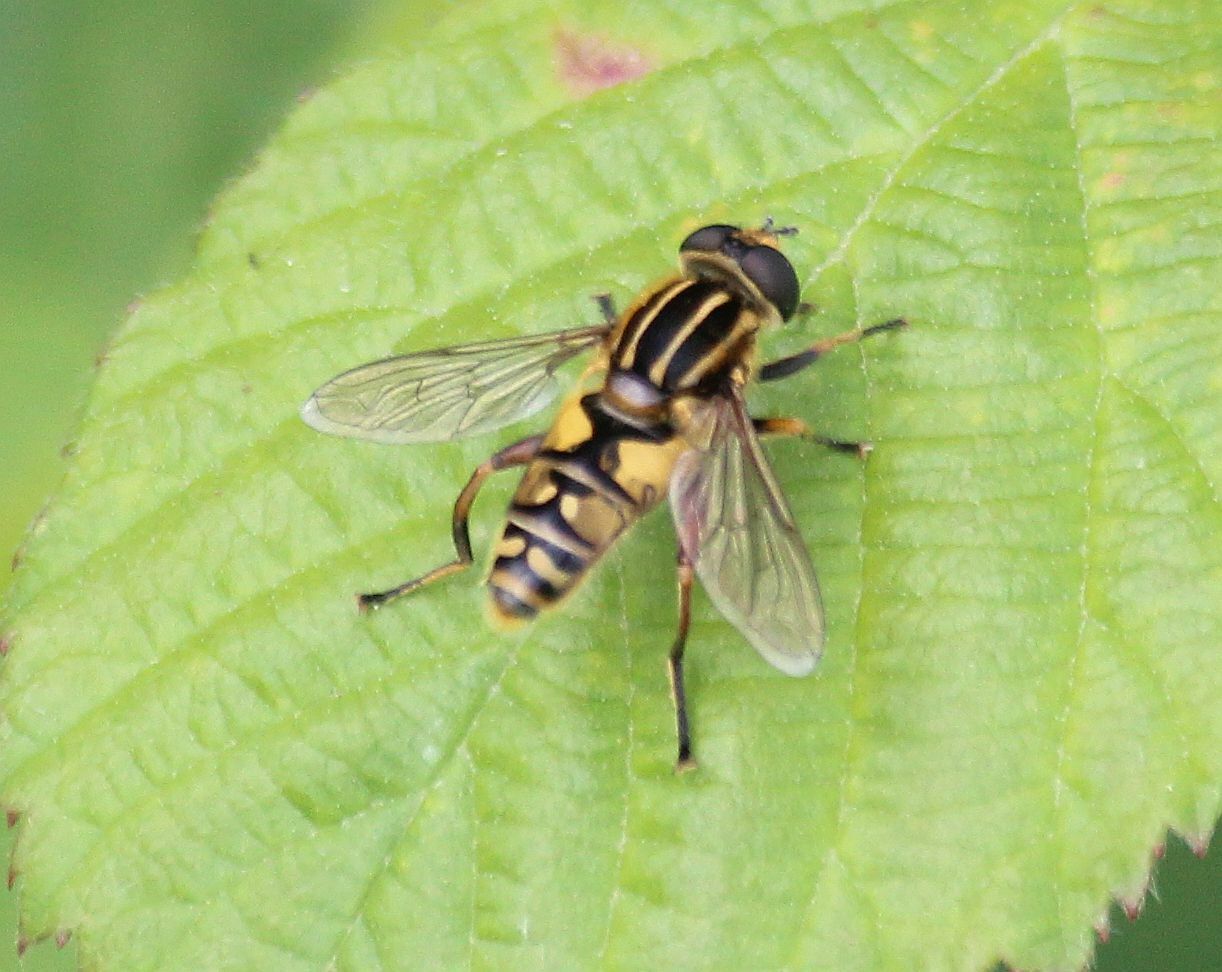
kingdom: Animalia
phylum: Arthropoda
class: Insecta
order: Diptera
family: Syrphidae
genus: Helophilus
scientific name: Helophilus pendulus
